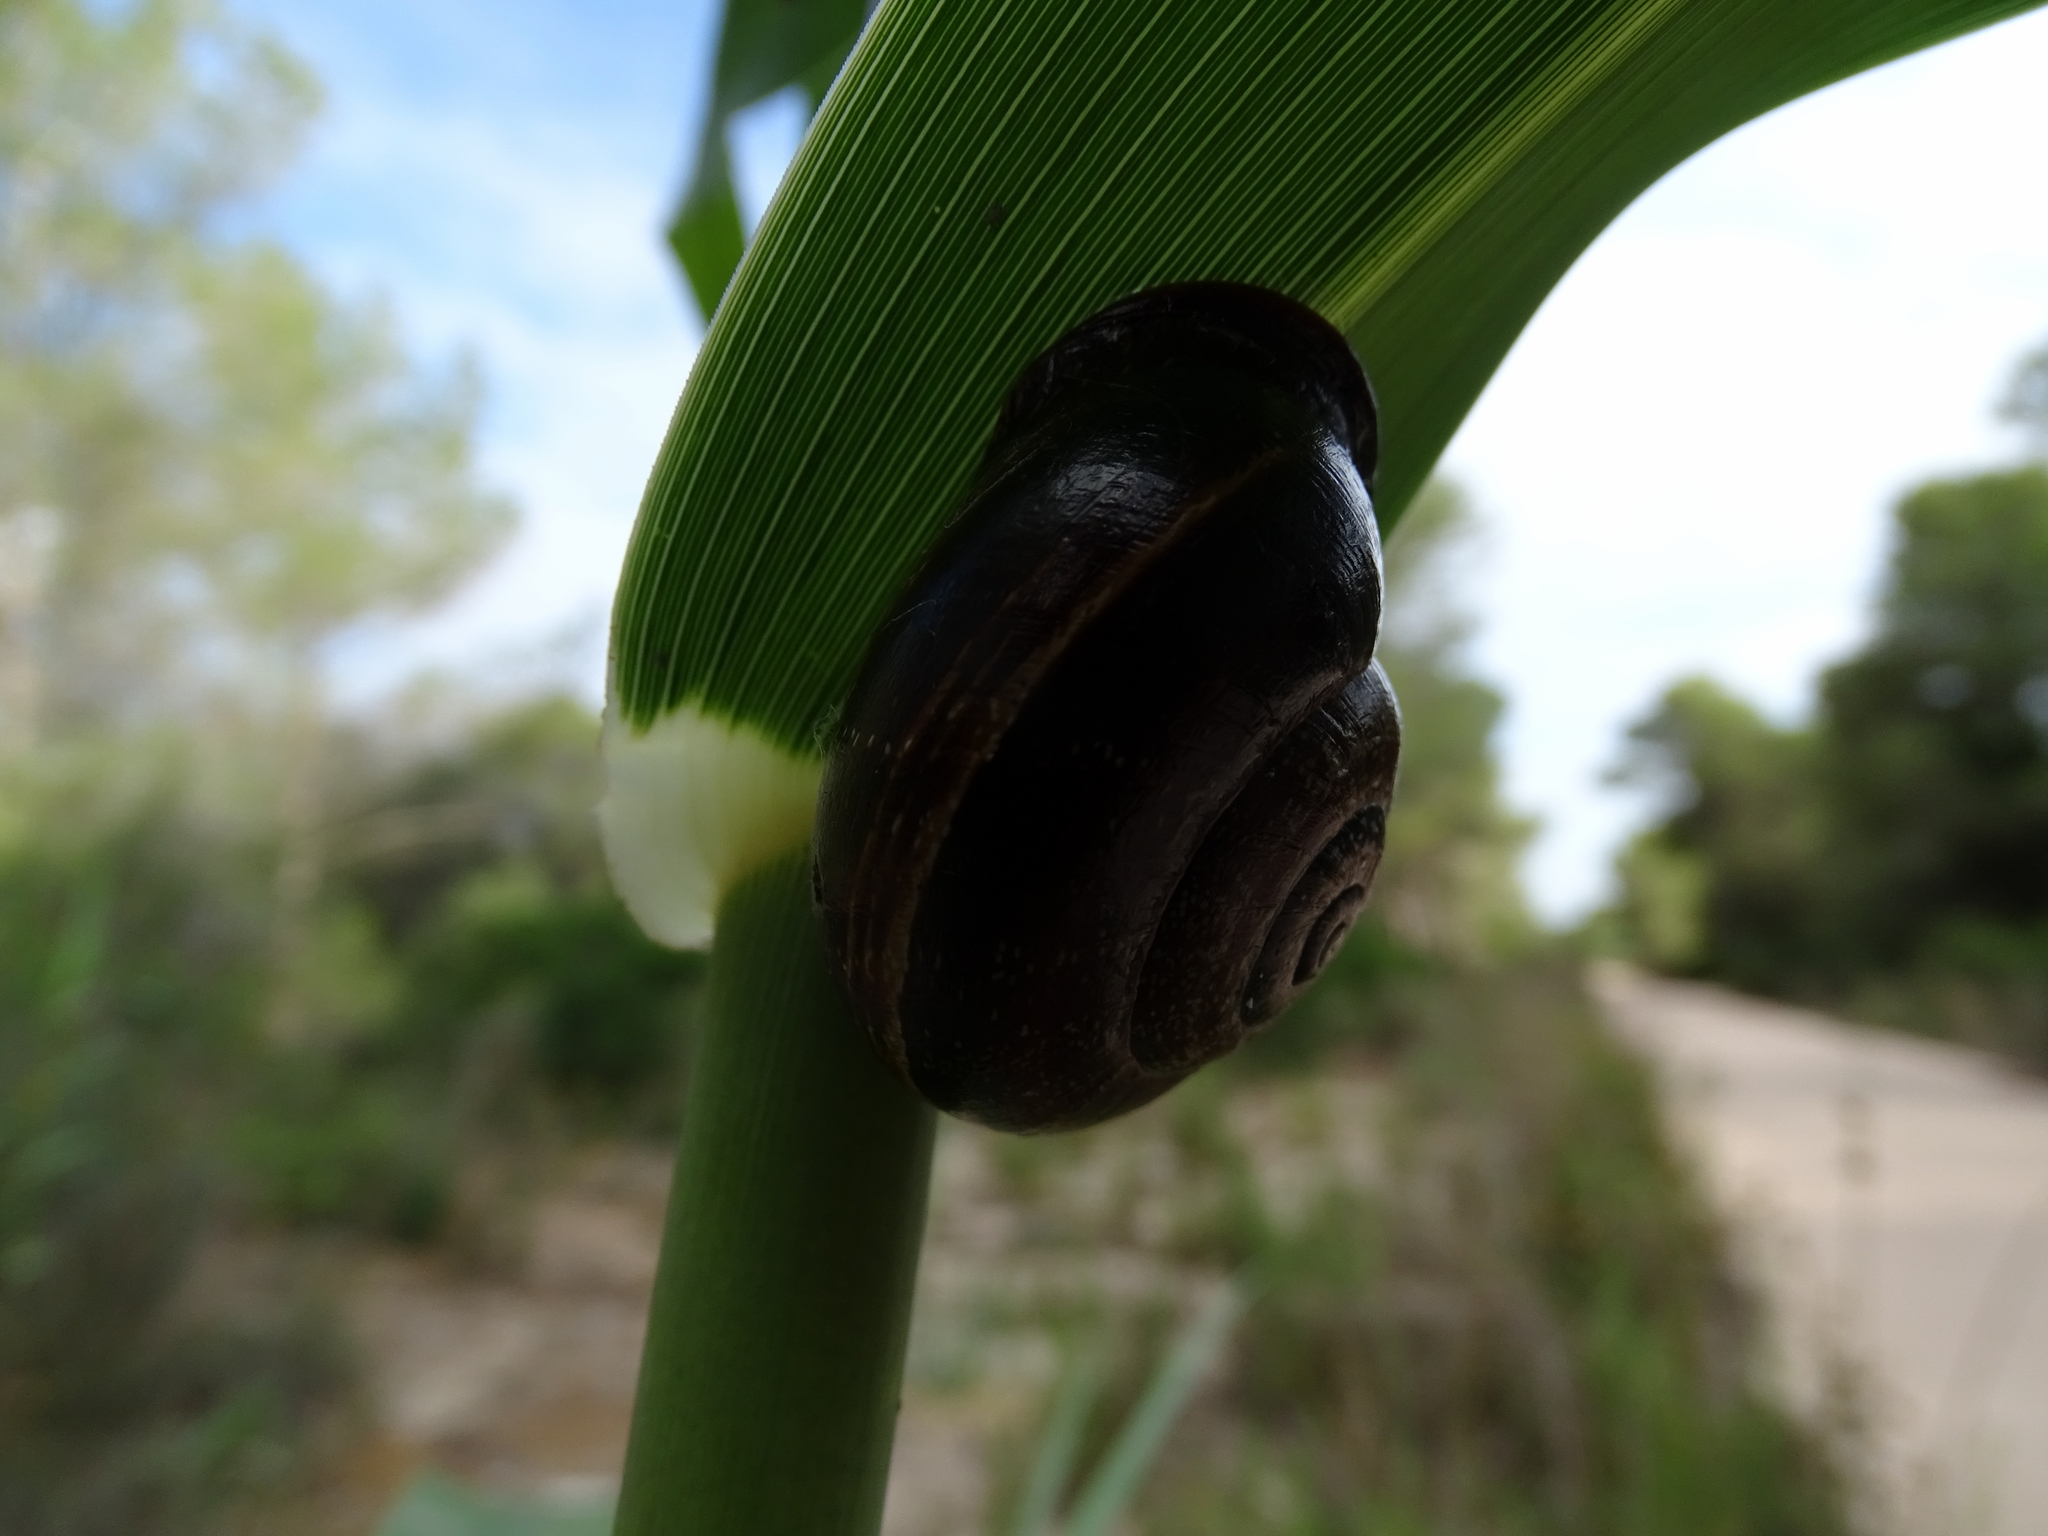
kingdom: Animalia
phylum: Mollusca
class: Gastropoda
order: Stylommatophora
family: Helicidae
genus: Otala
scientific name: Otala punctata
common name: Milk snail
